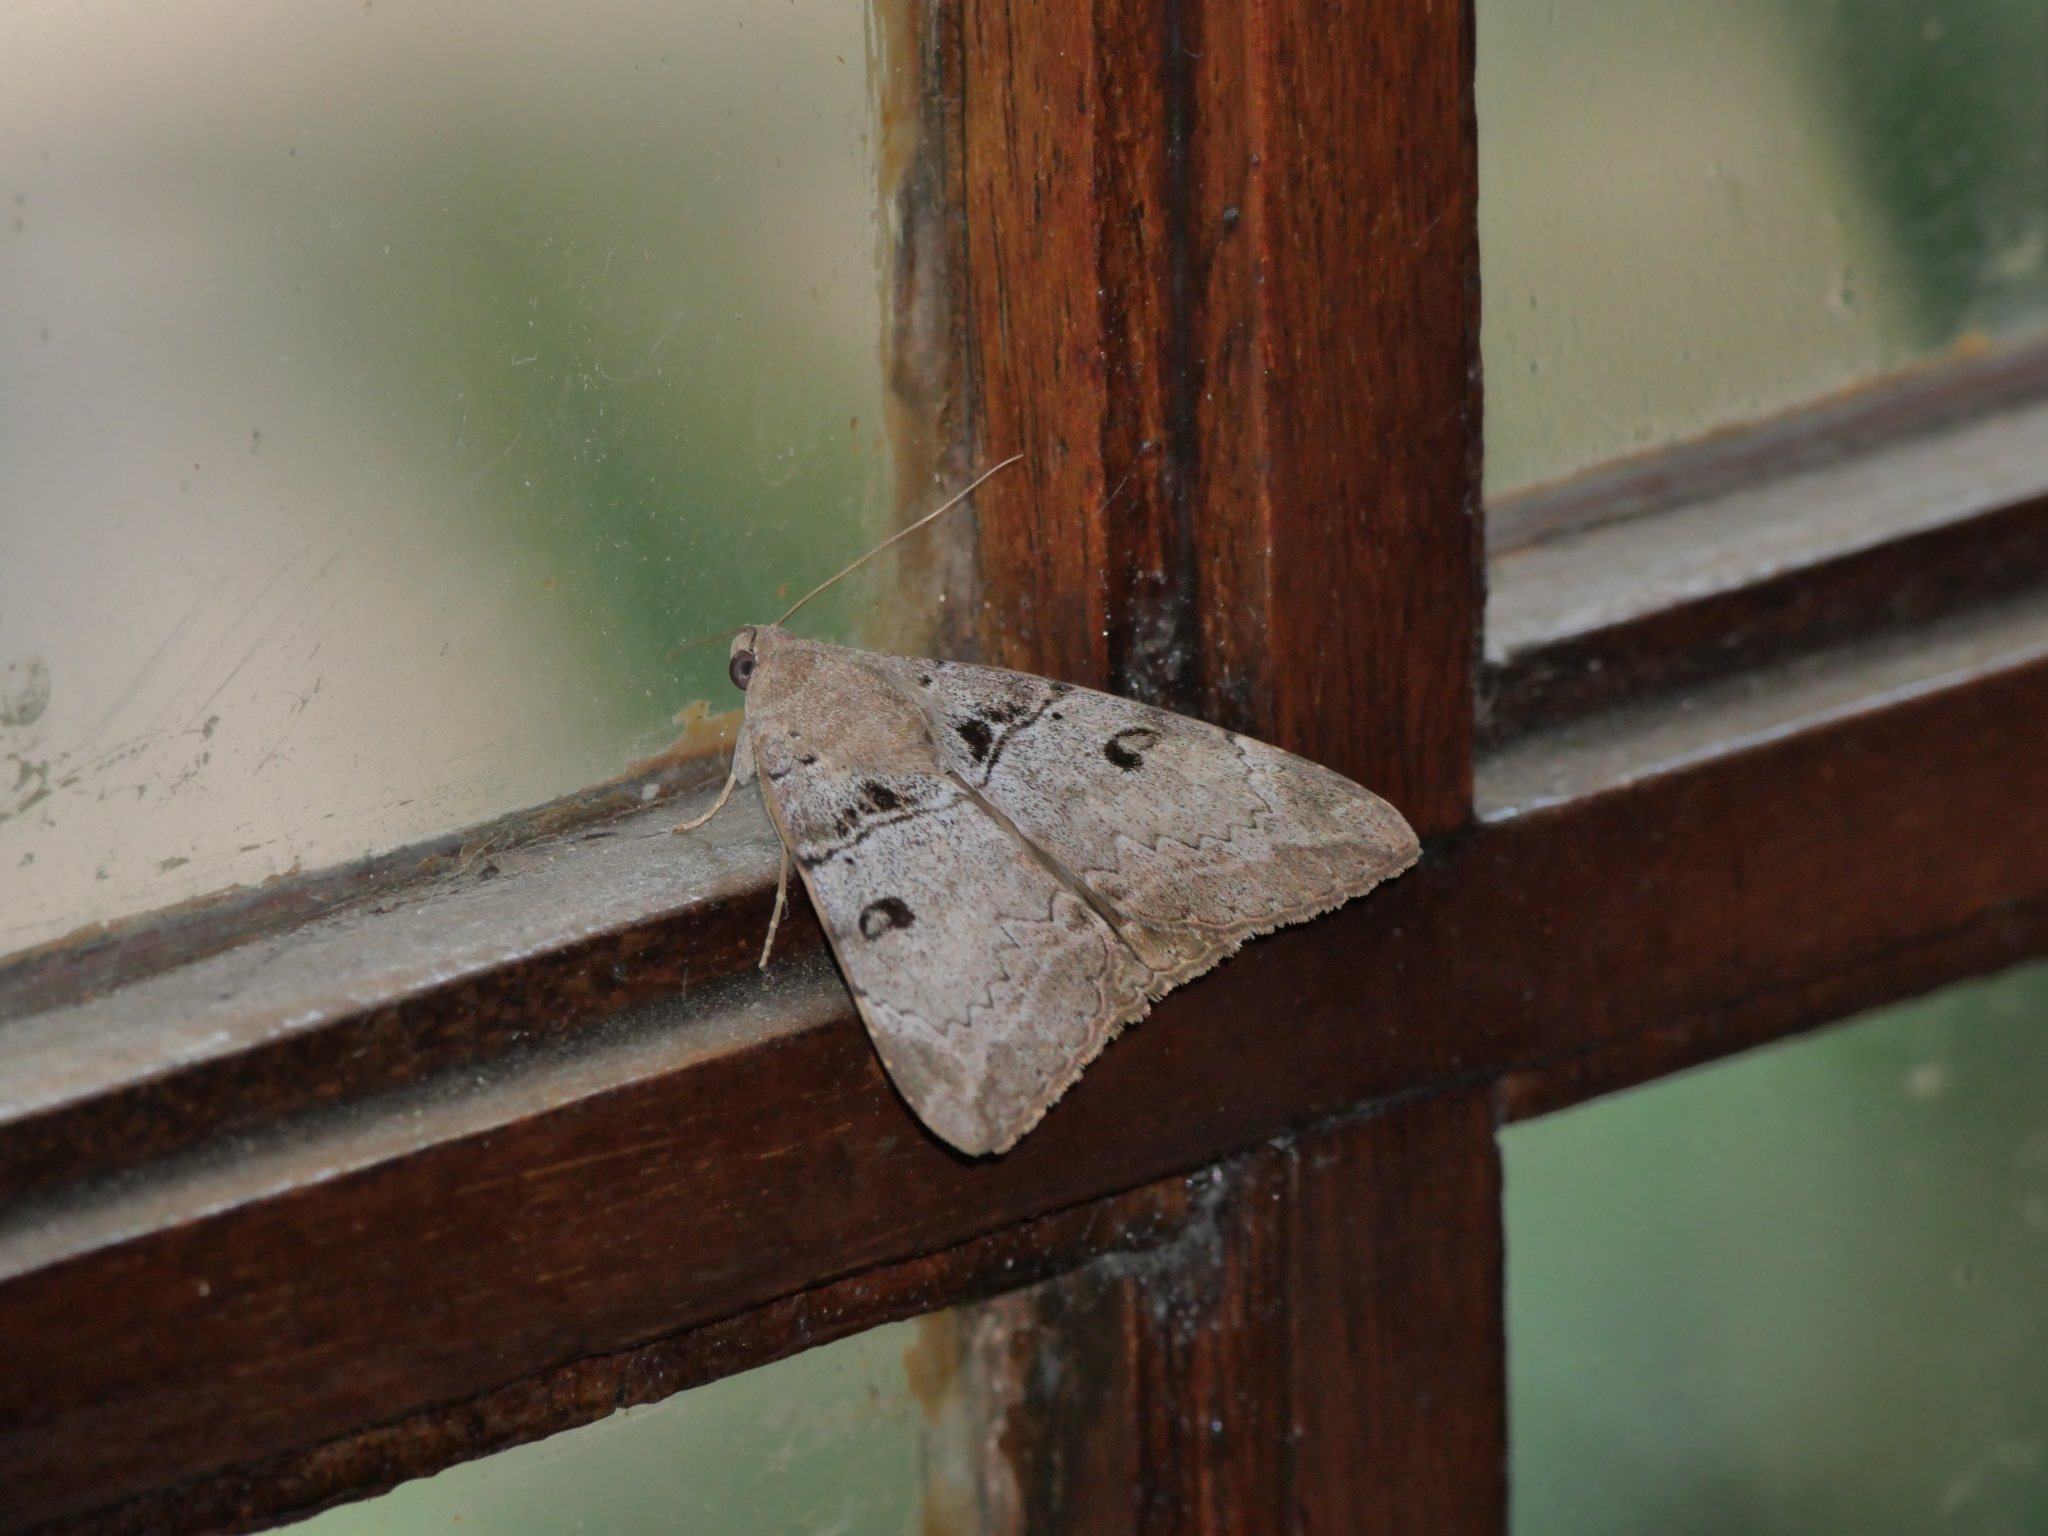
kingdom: Animalia
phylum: Arthropoda
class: Insecta
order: Lepidoptera
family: Erebidae
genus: Achaea
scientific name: Achaea lienardi
